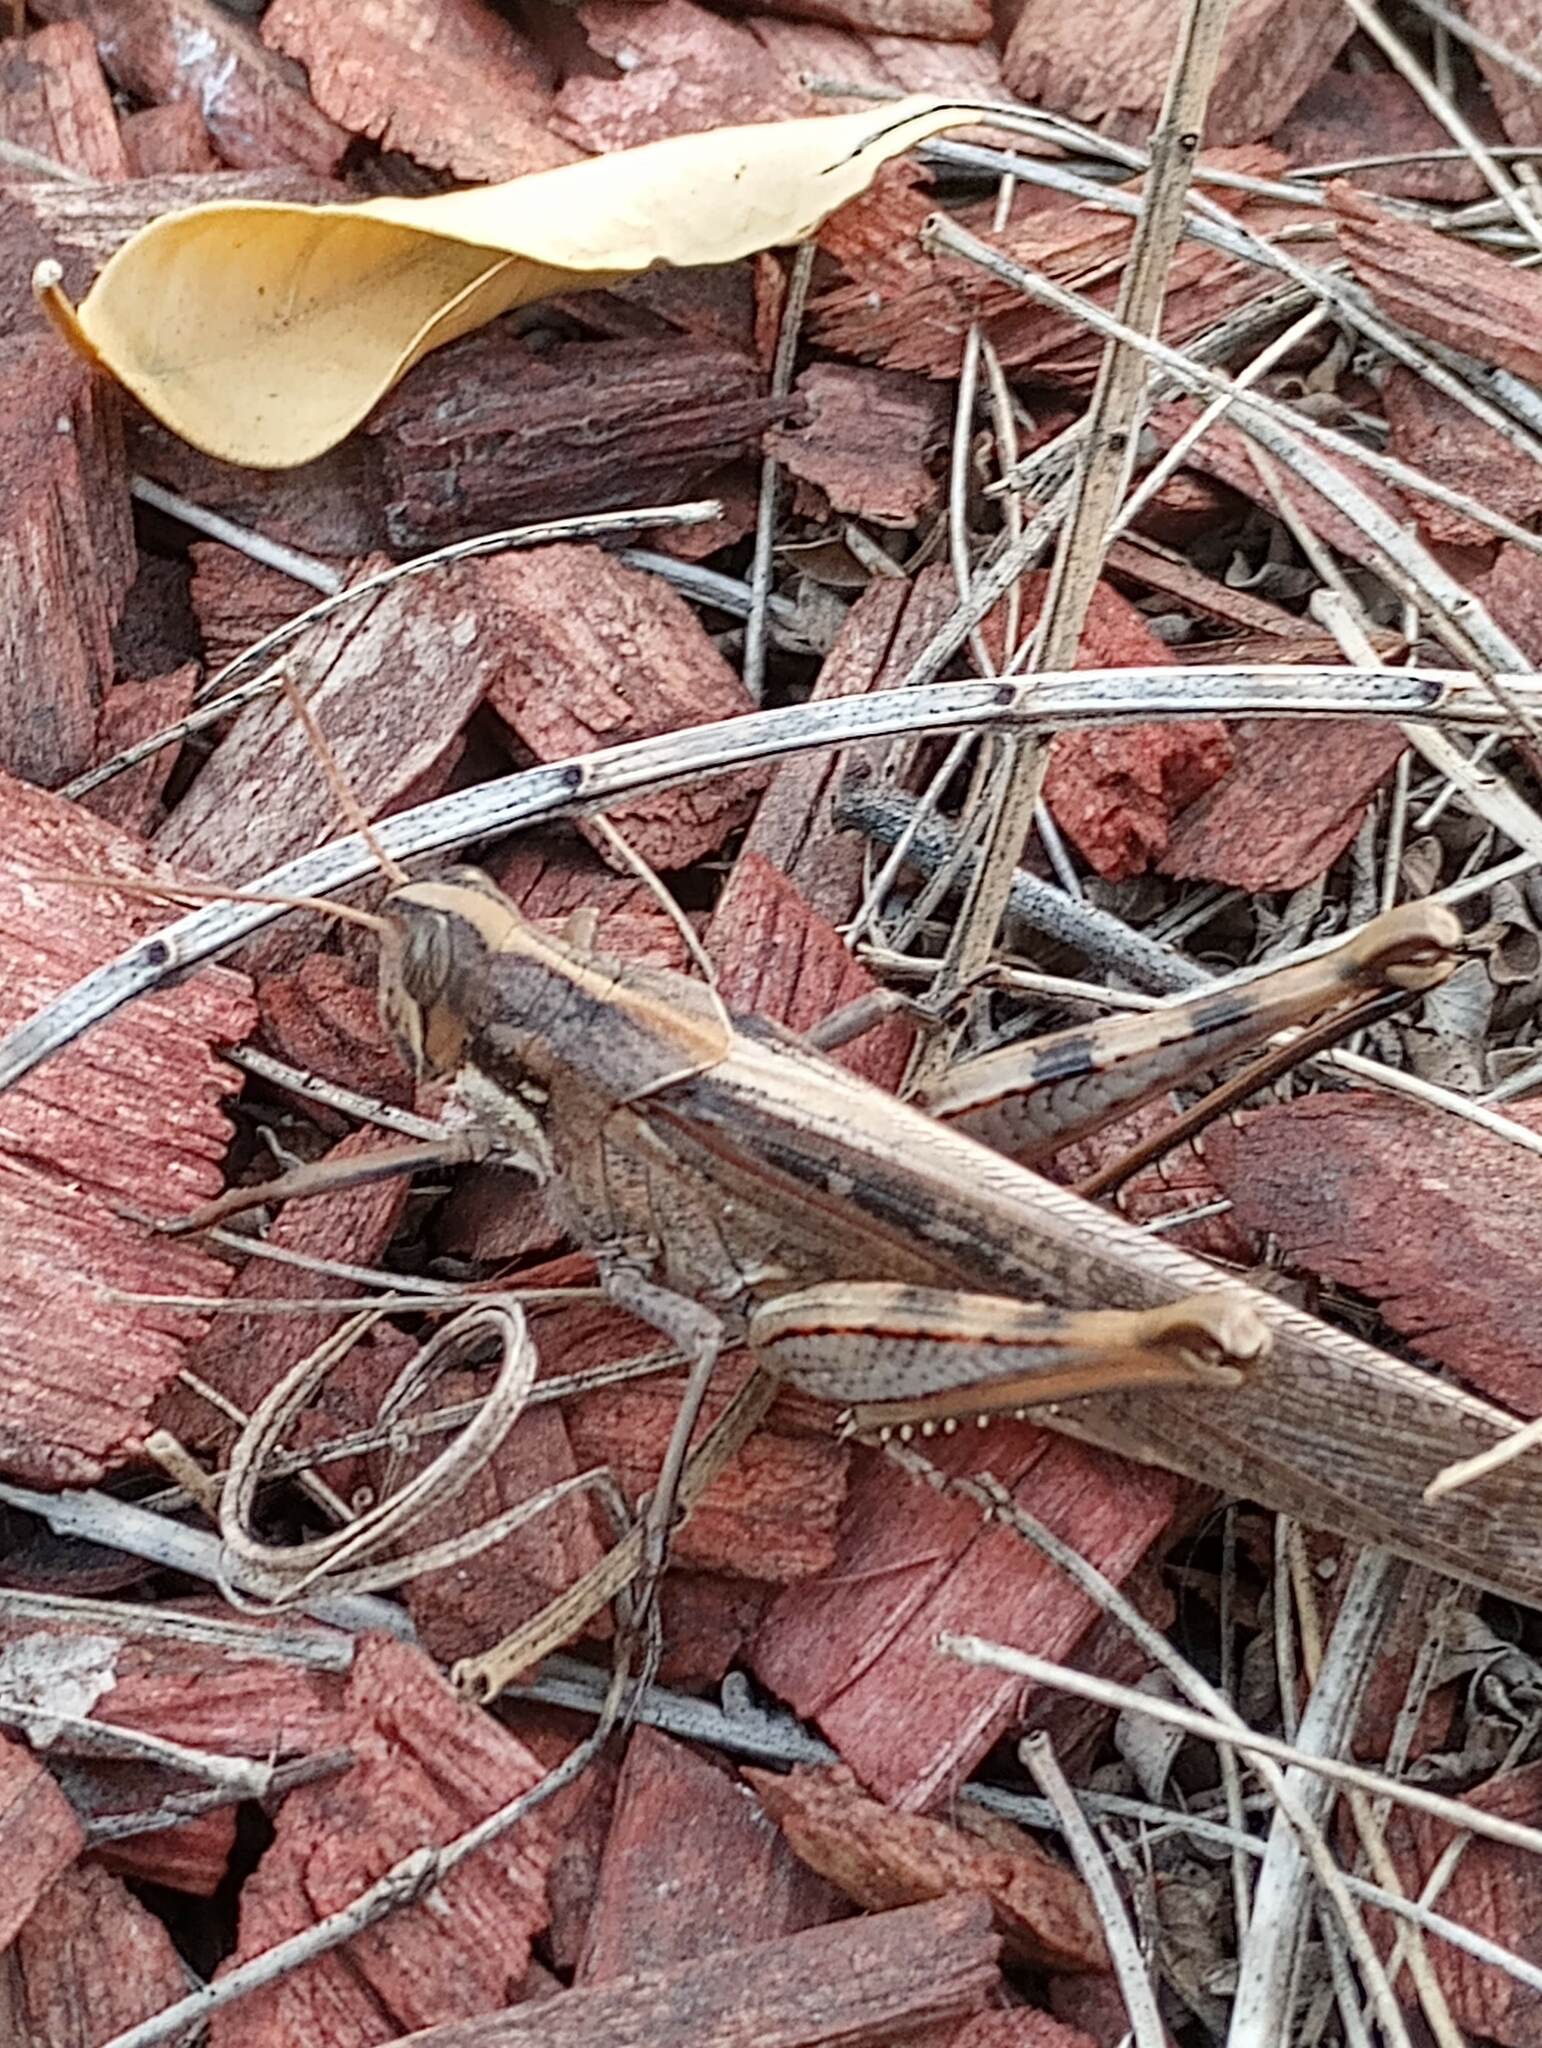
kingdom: Animalia
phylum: Arthropoda
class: Insecta
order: Orthoptera
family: Acrididae
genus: Schistocerca
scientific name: Schistocerca nitens
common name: Vagrant grasshopper
